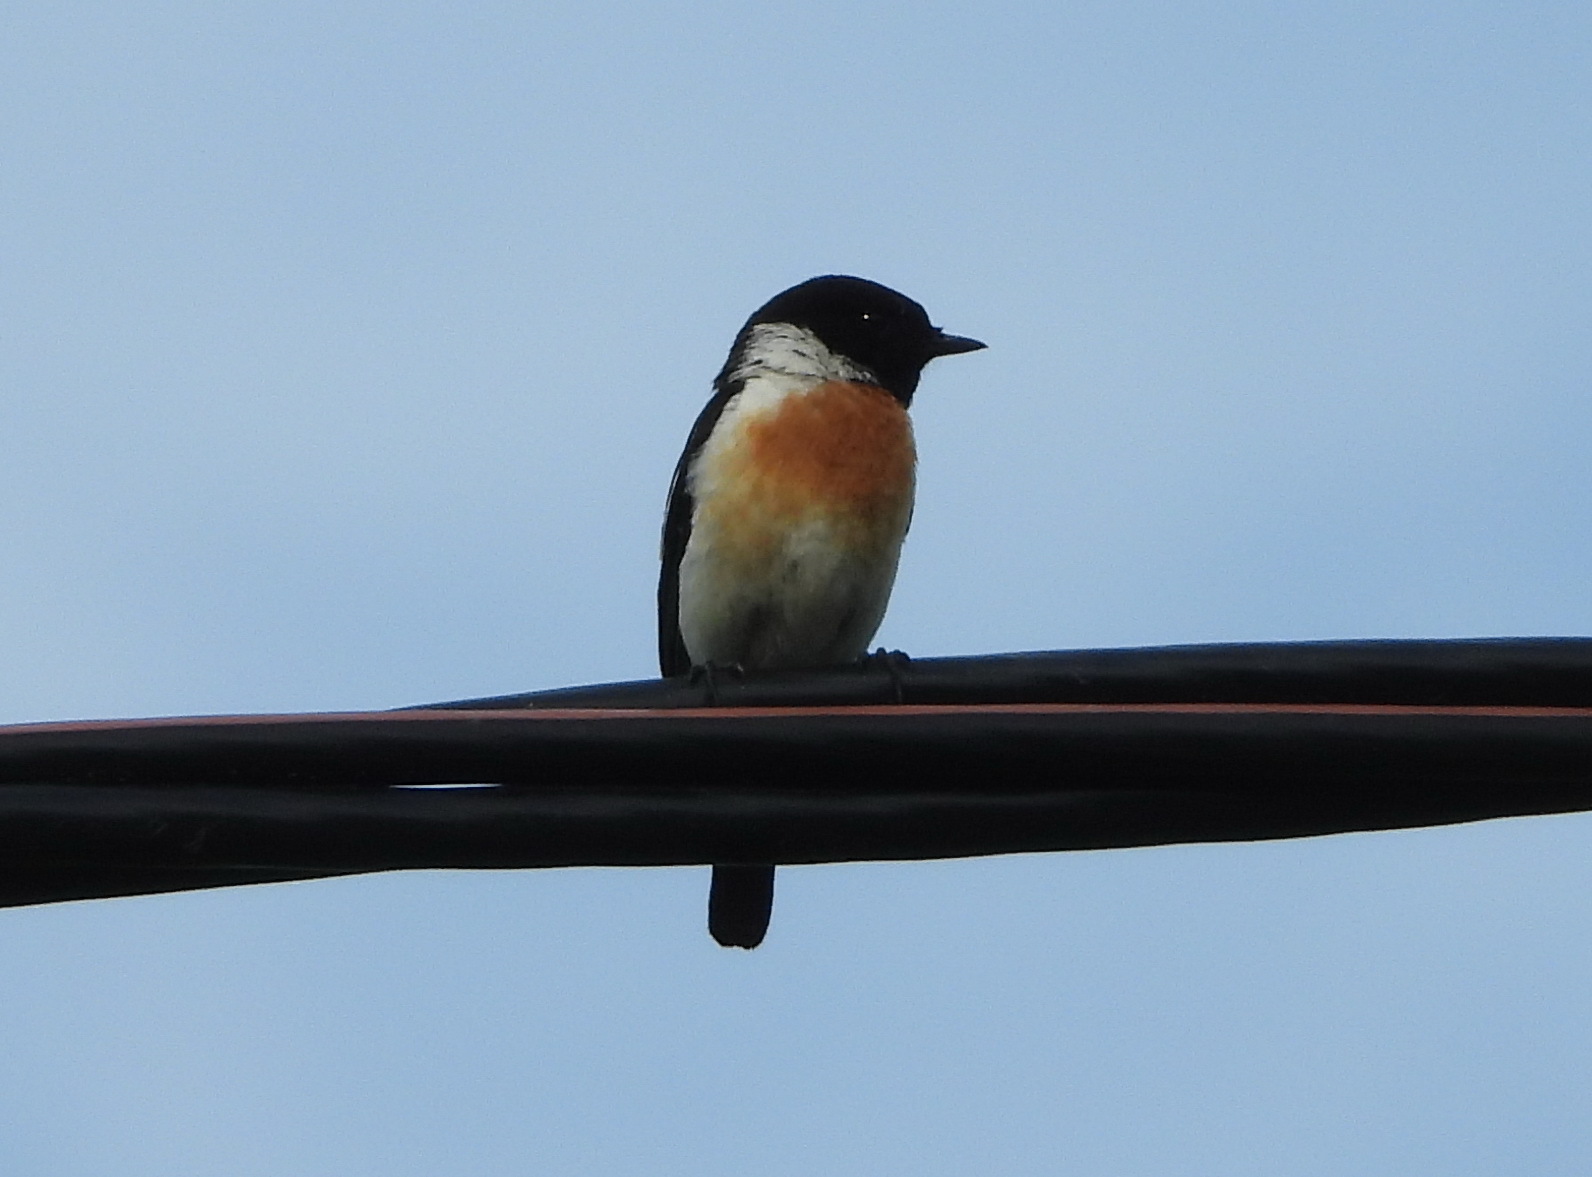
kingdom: Animalia
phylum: Chordata
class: Aves
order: Passeriformes
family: Muscicapidae
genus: Saxicola
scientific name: Saxicola maurus
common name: Siberian stonechat
